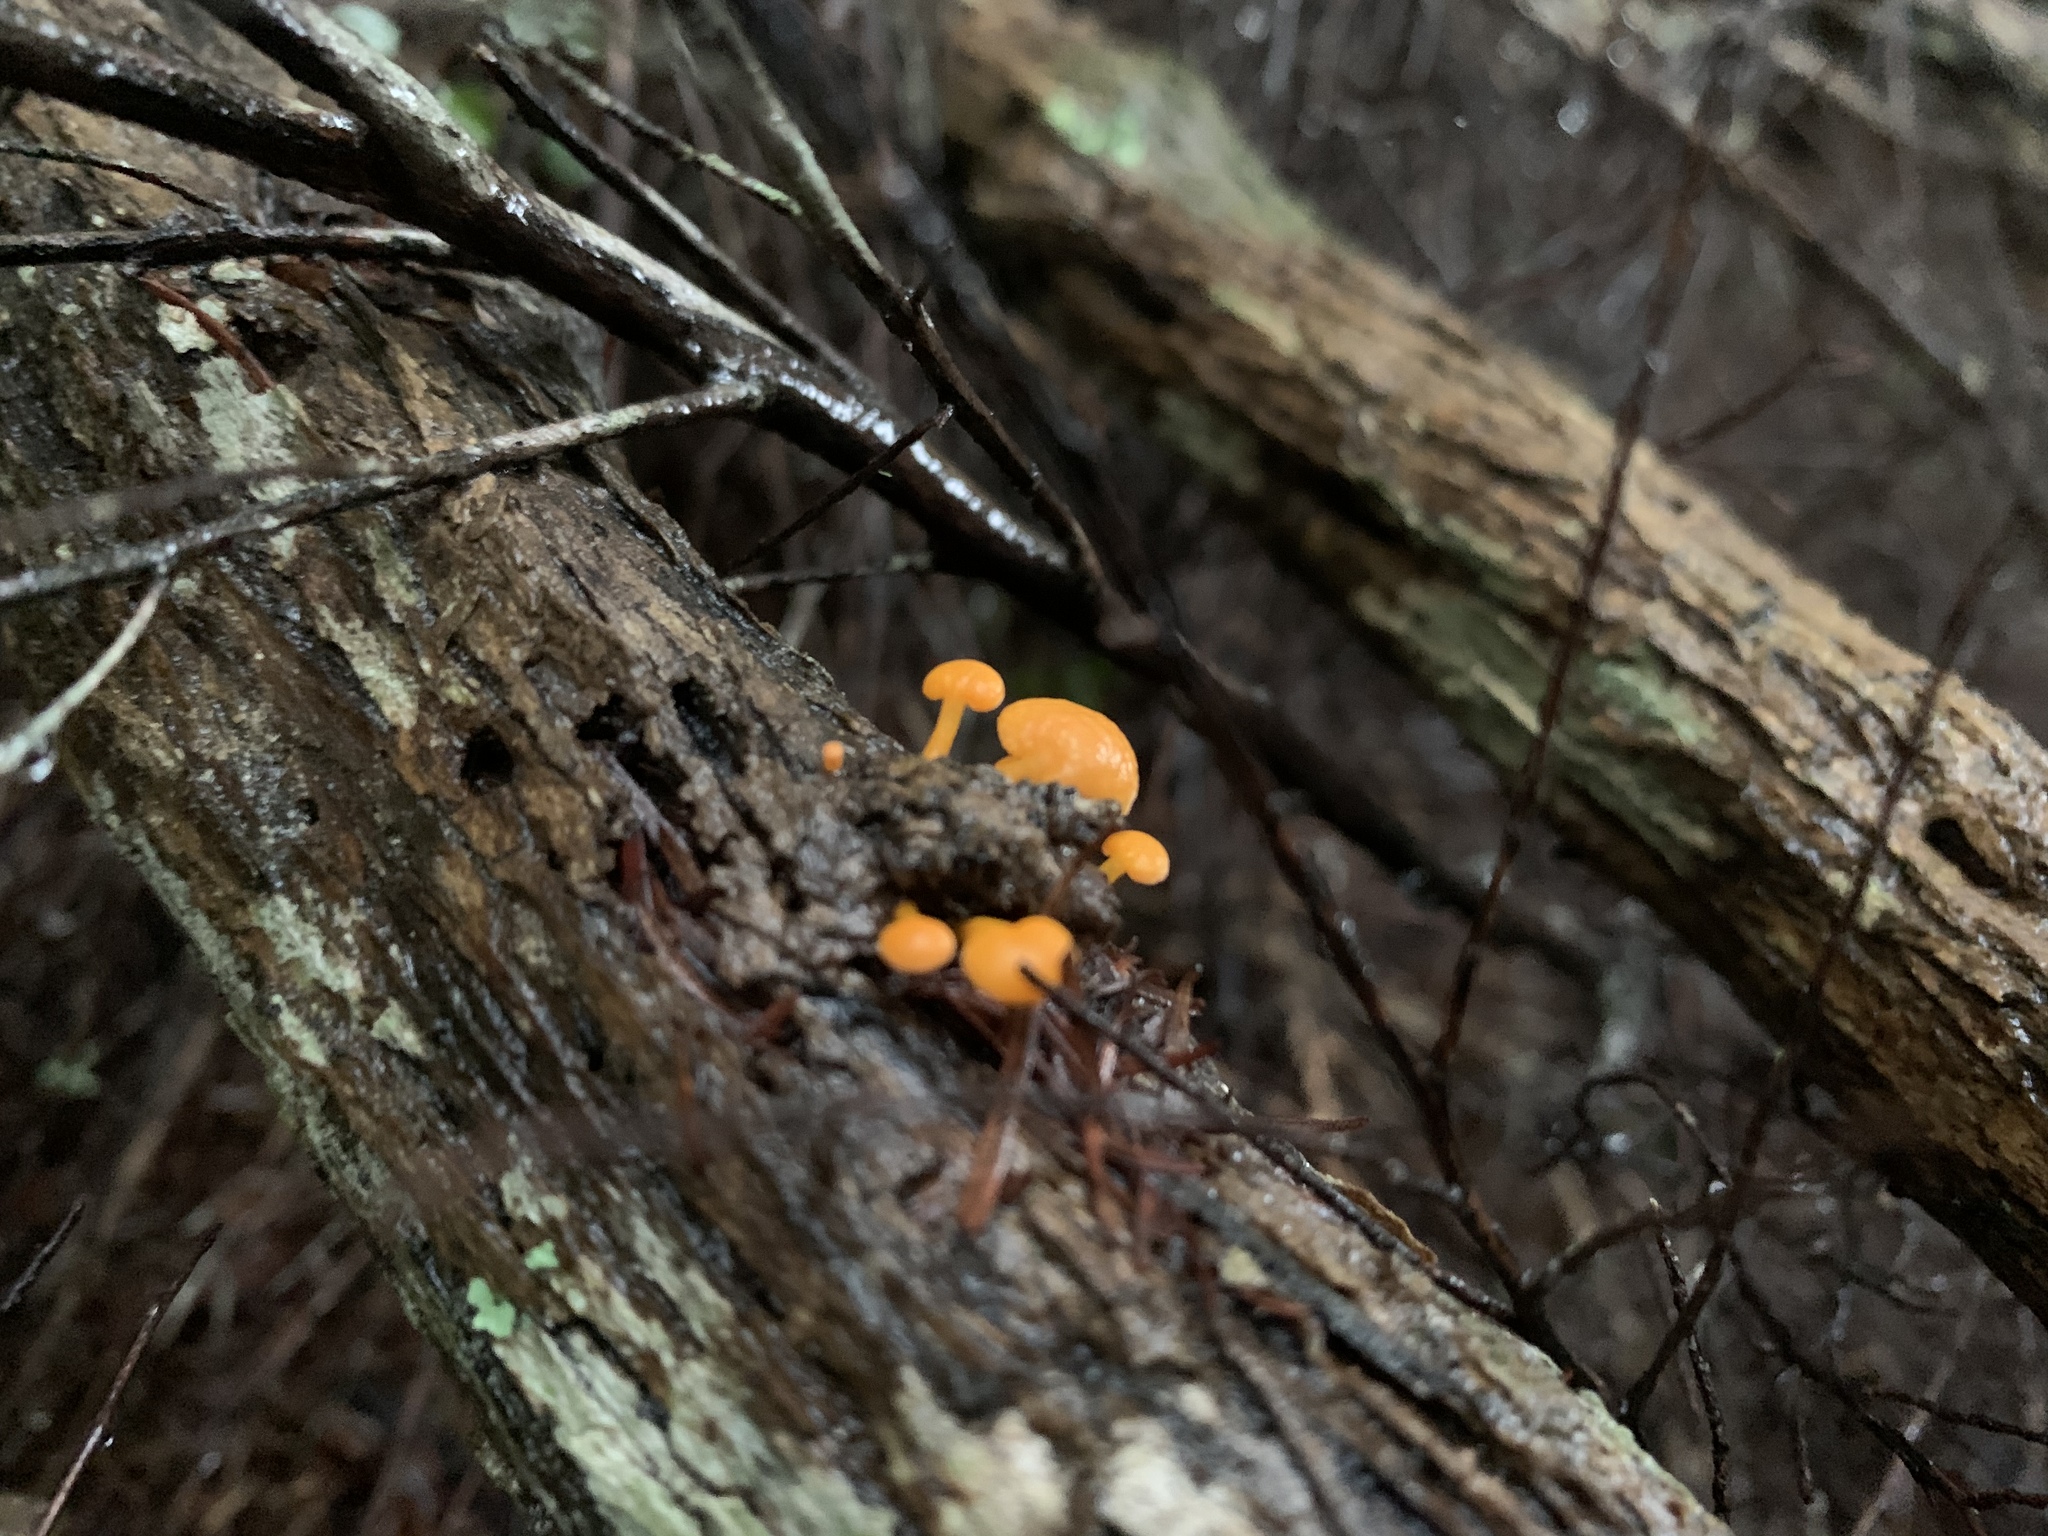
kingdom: Fungi
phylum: Basidiomycota
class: Agaricomycetes
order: Agaricales
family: Mycenaceae
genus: Favolaschia
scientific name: Favolaschia claudopus
